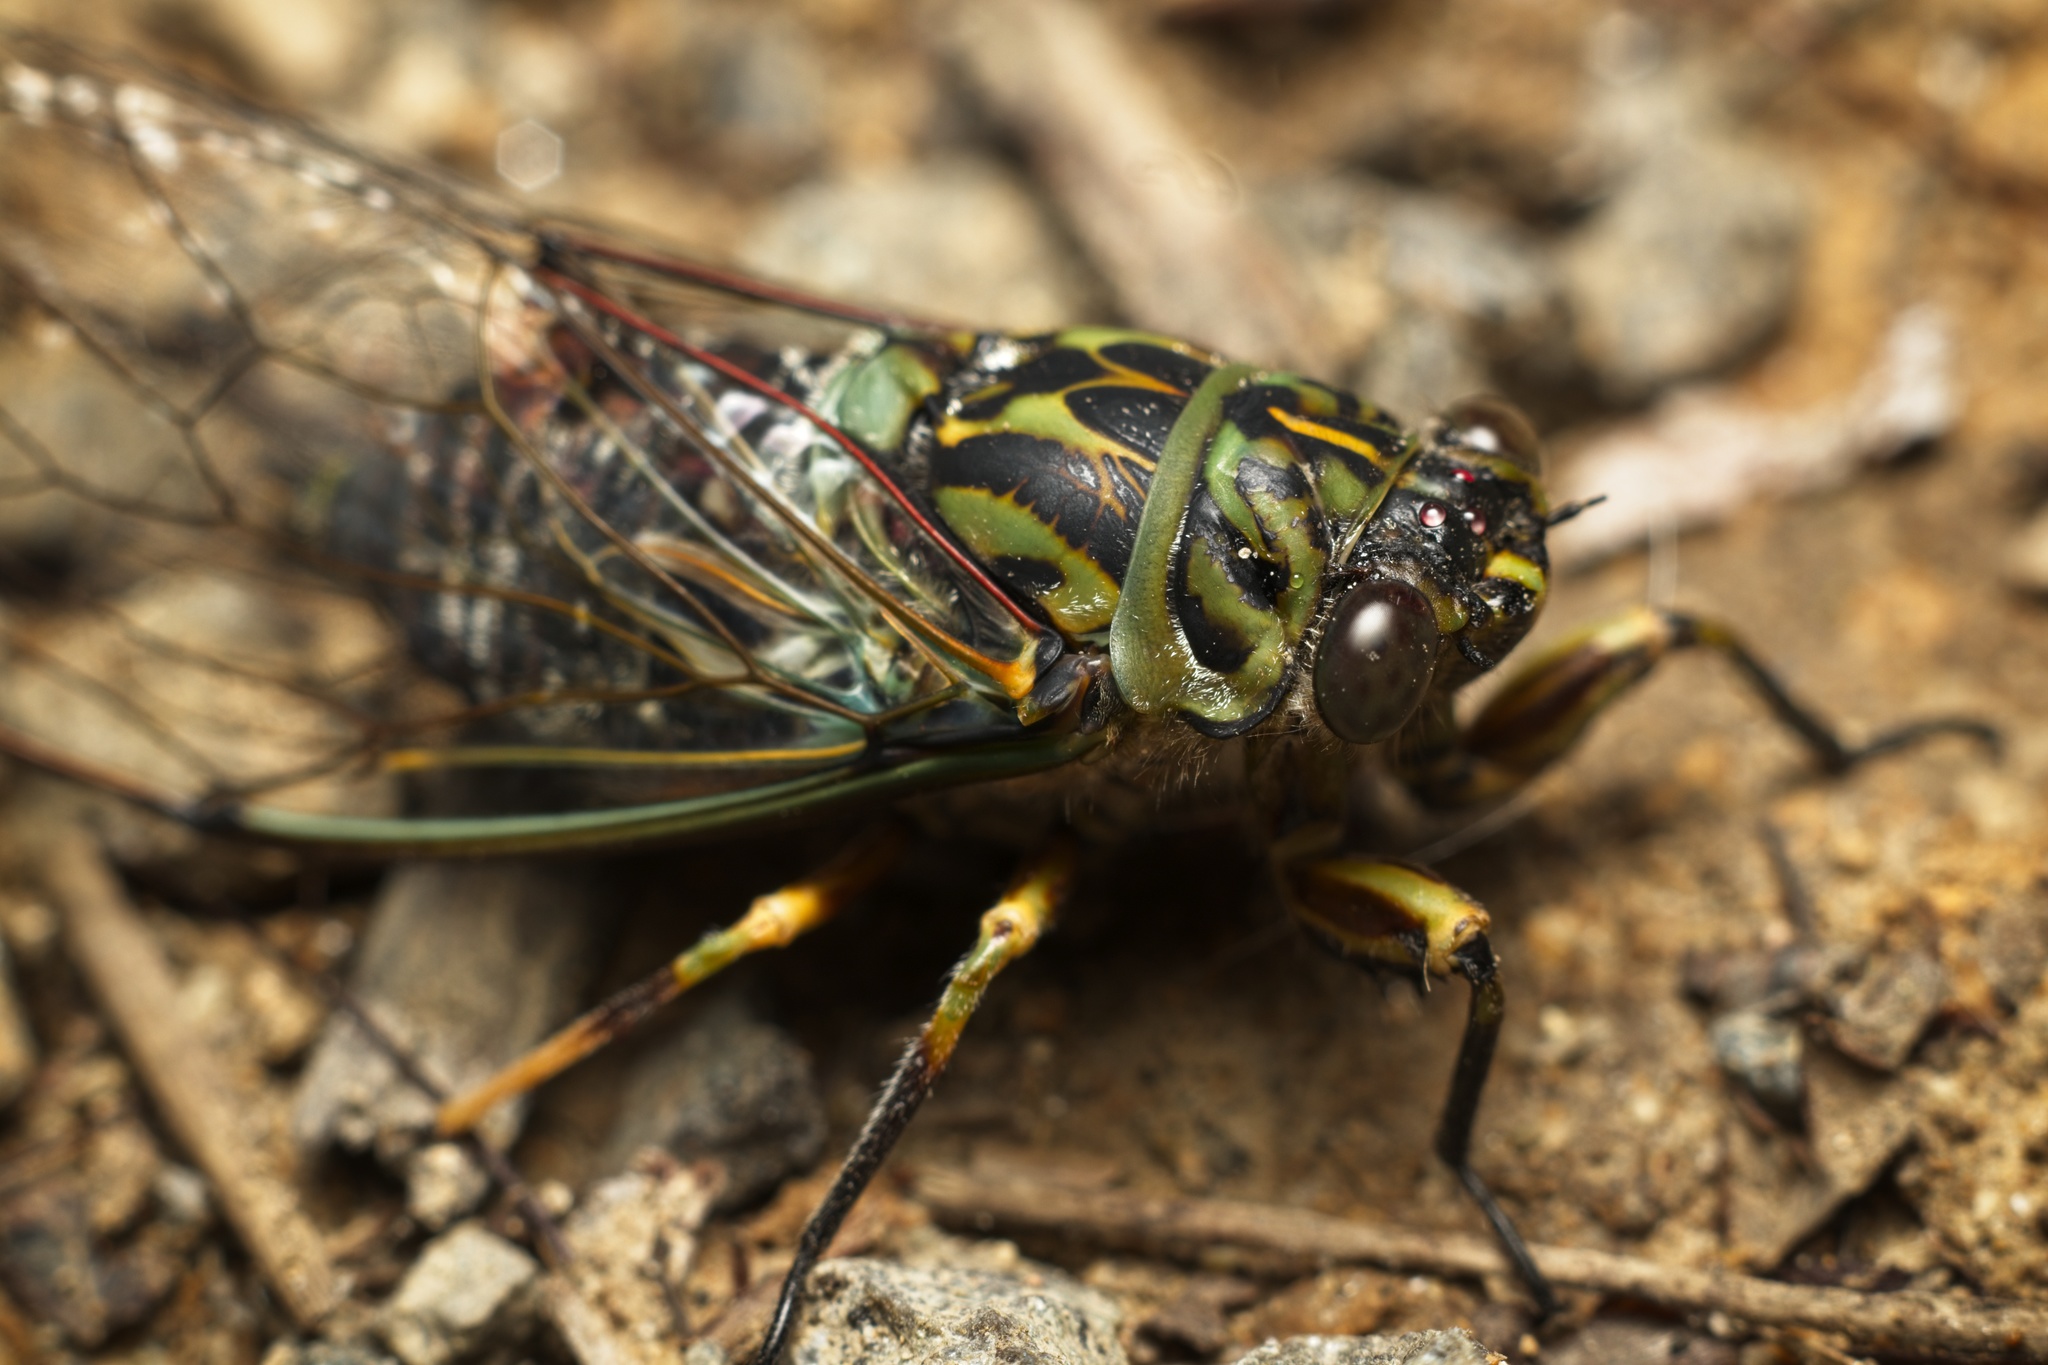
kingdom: Animalia
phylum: Arthropoda
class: Insecta
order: Hemiptera
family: Cicadidae
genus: Amphipsalta
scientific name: Amphipsalta zelandica
